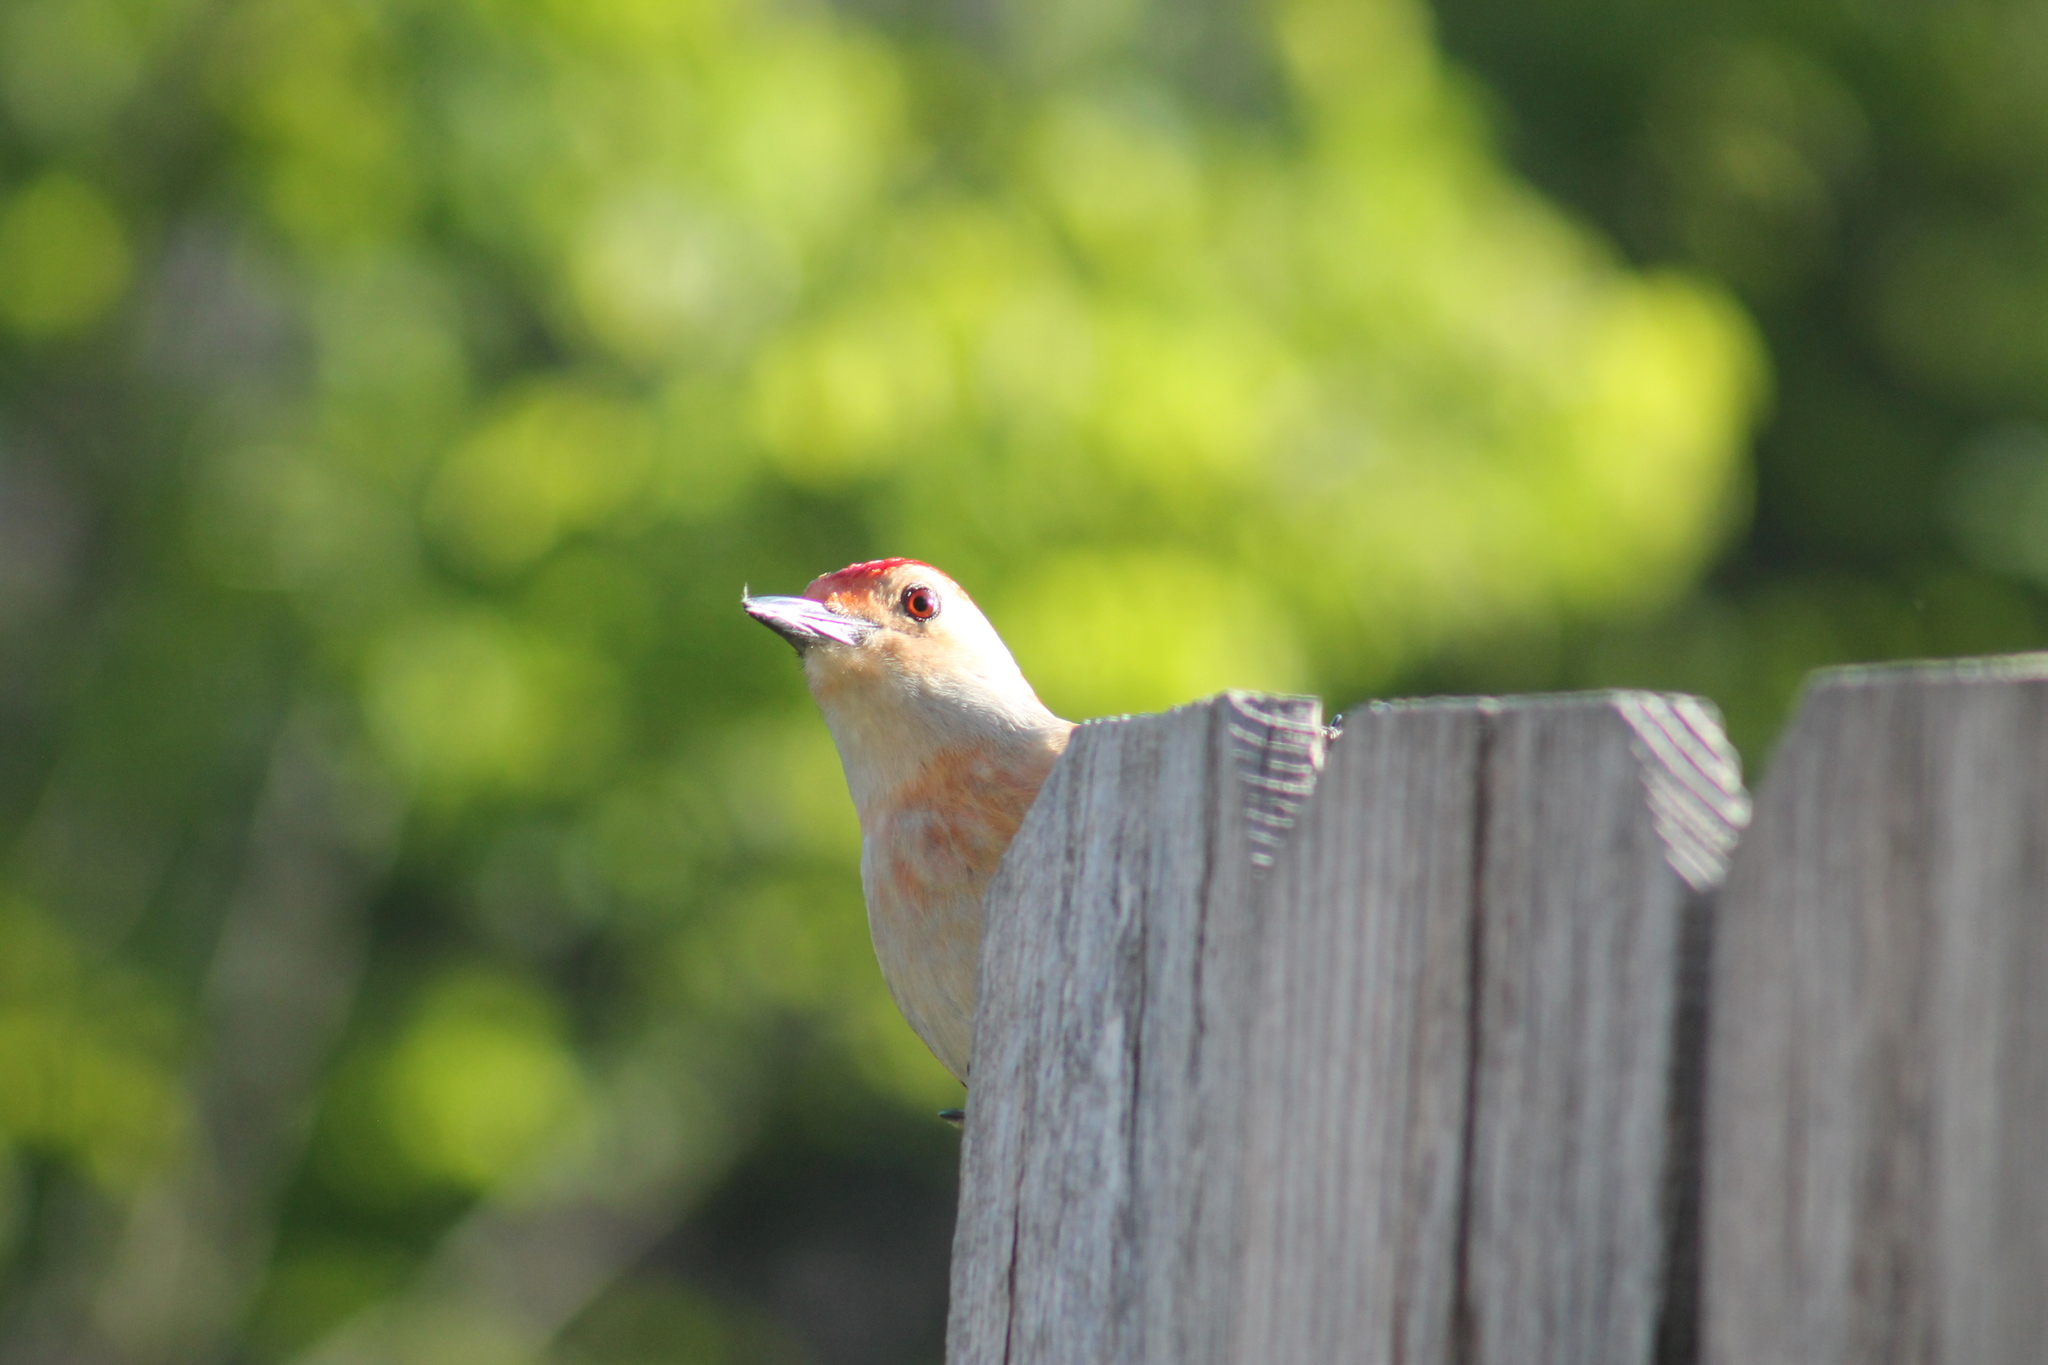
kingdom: Animalia
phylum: Chordata
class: Aves
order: Piciformes
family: Picidae
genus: Melanerpes
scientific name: Melanerpes carolinus
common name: Red-bellied woodpecker
